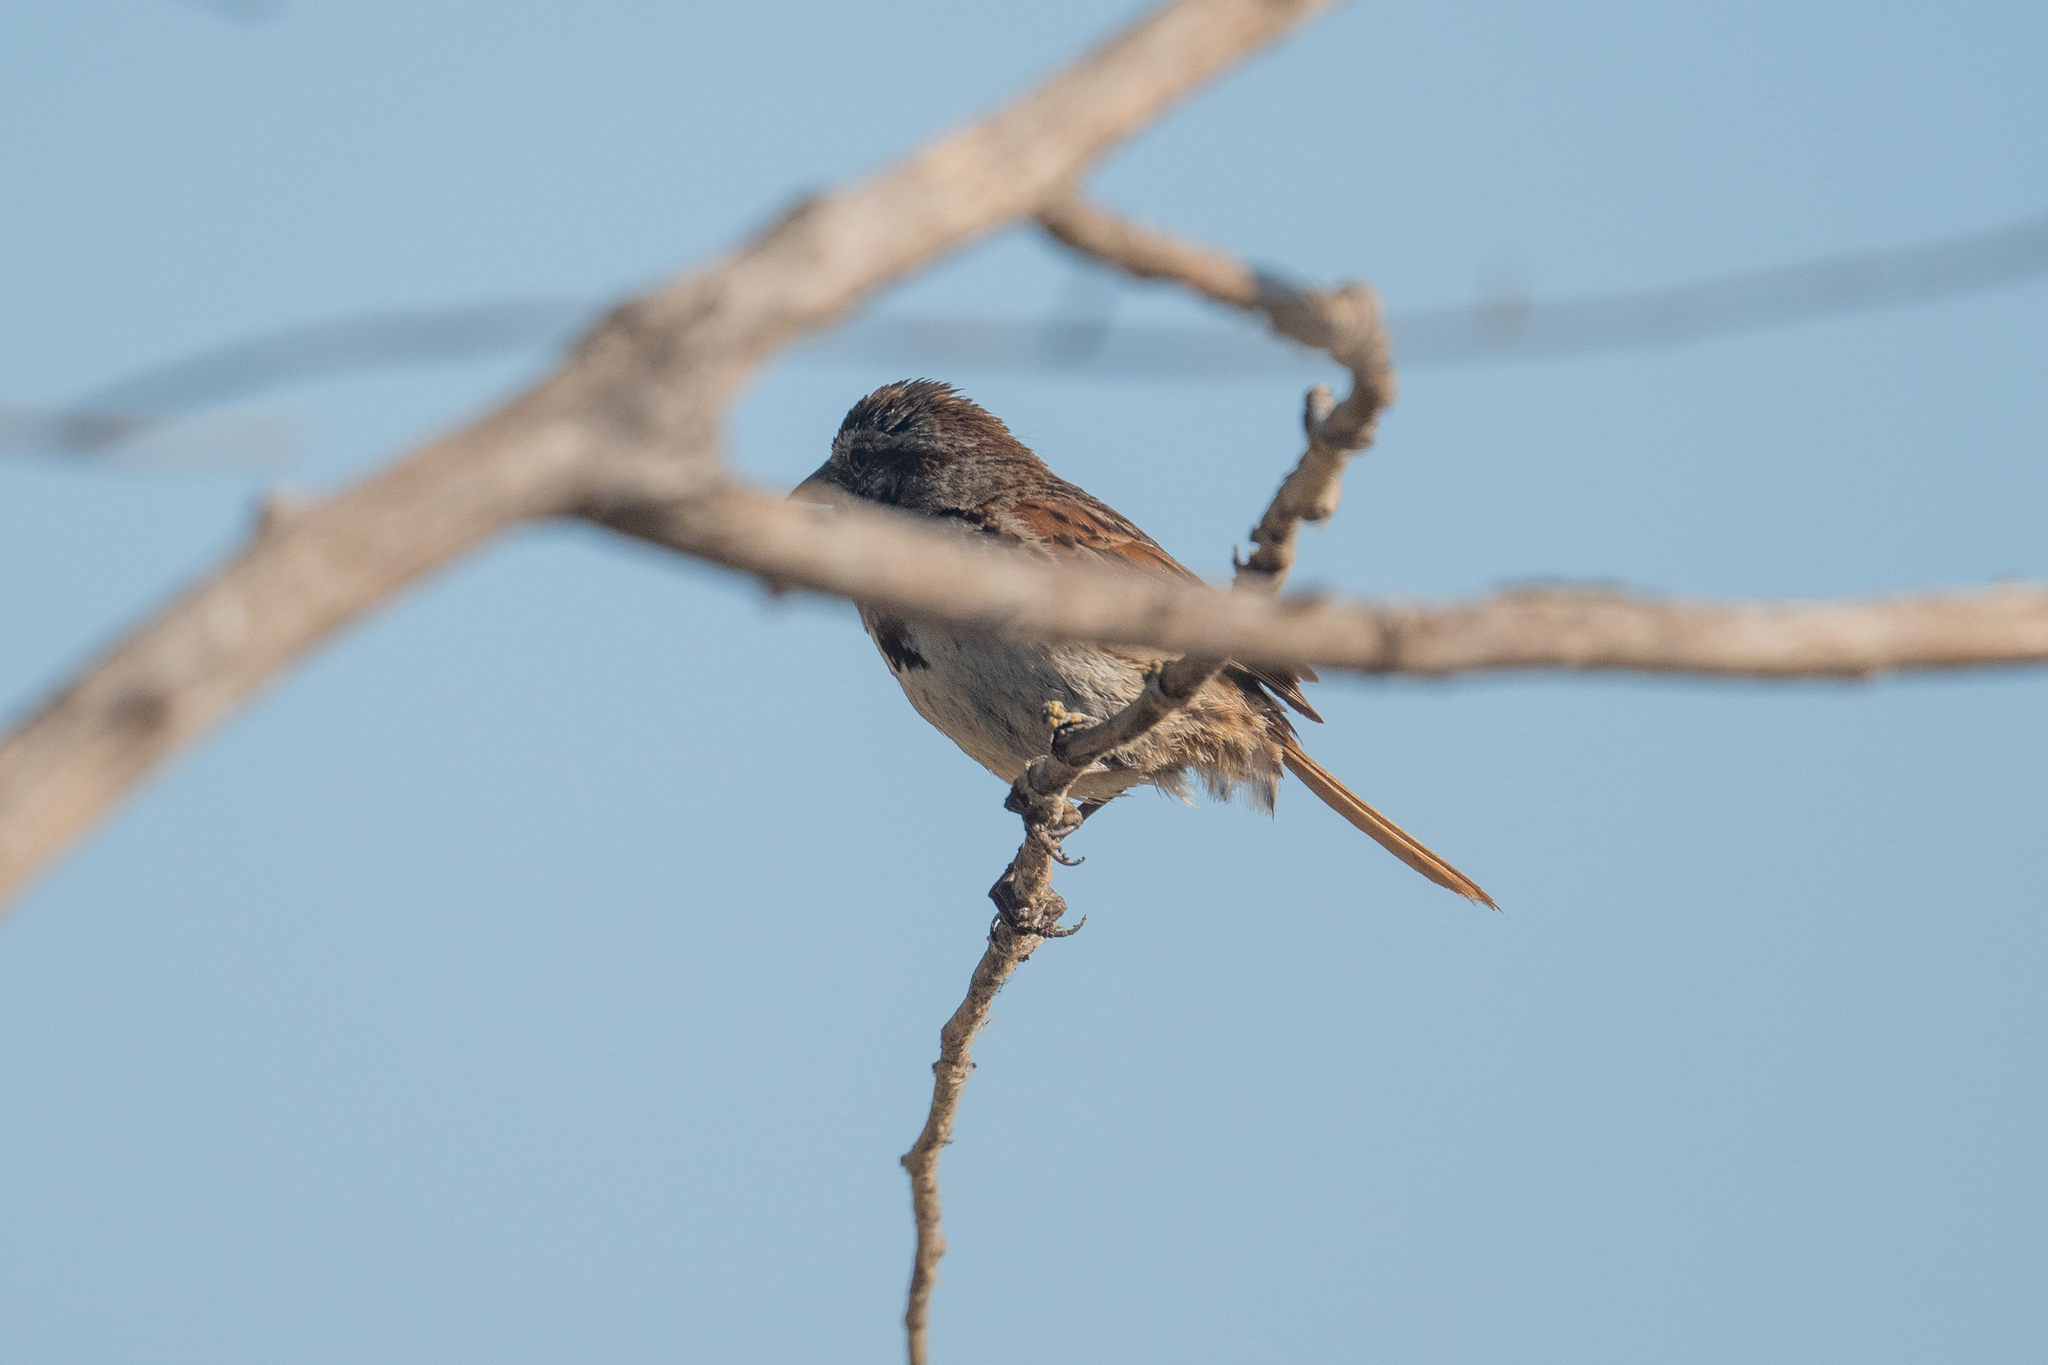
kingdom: Animalia
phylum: Chordata
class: Aves
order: Passeriformes
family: Passerellidae
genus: Melospiza
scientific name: Melospiza melodia
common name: Song sparrow
